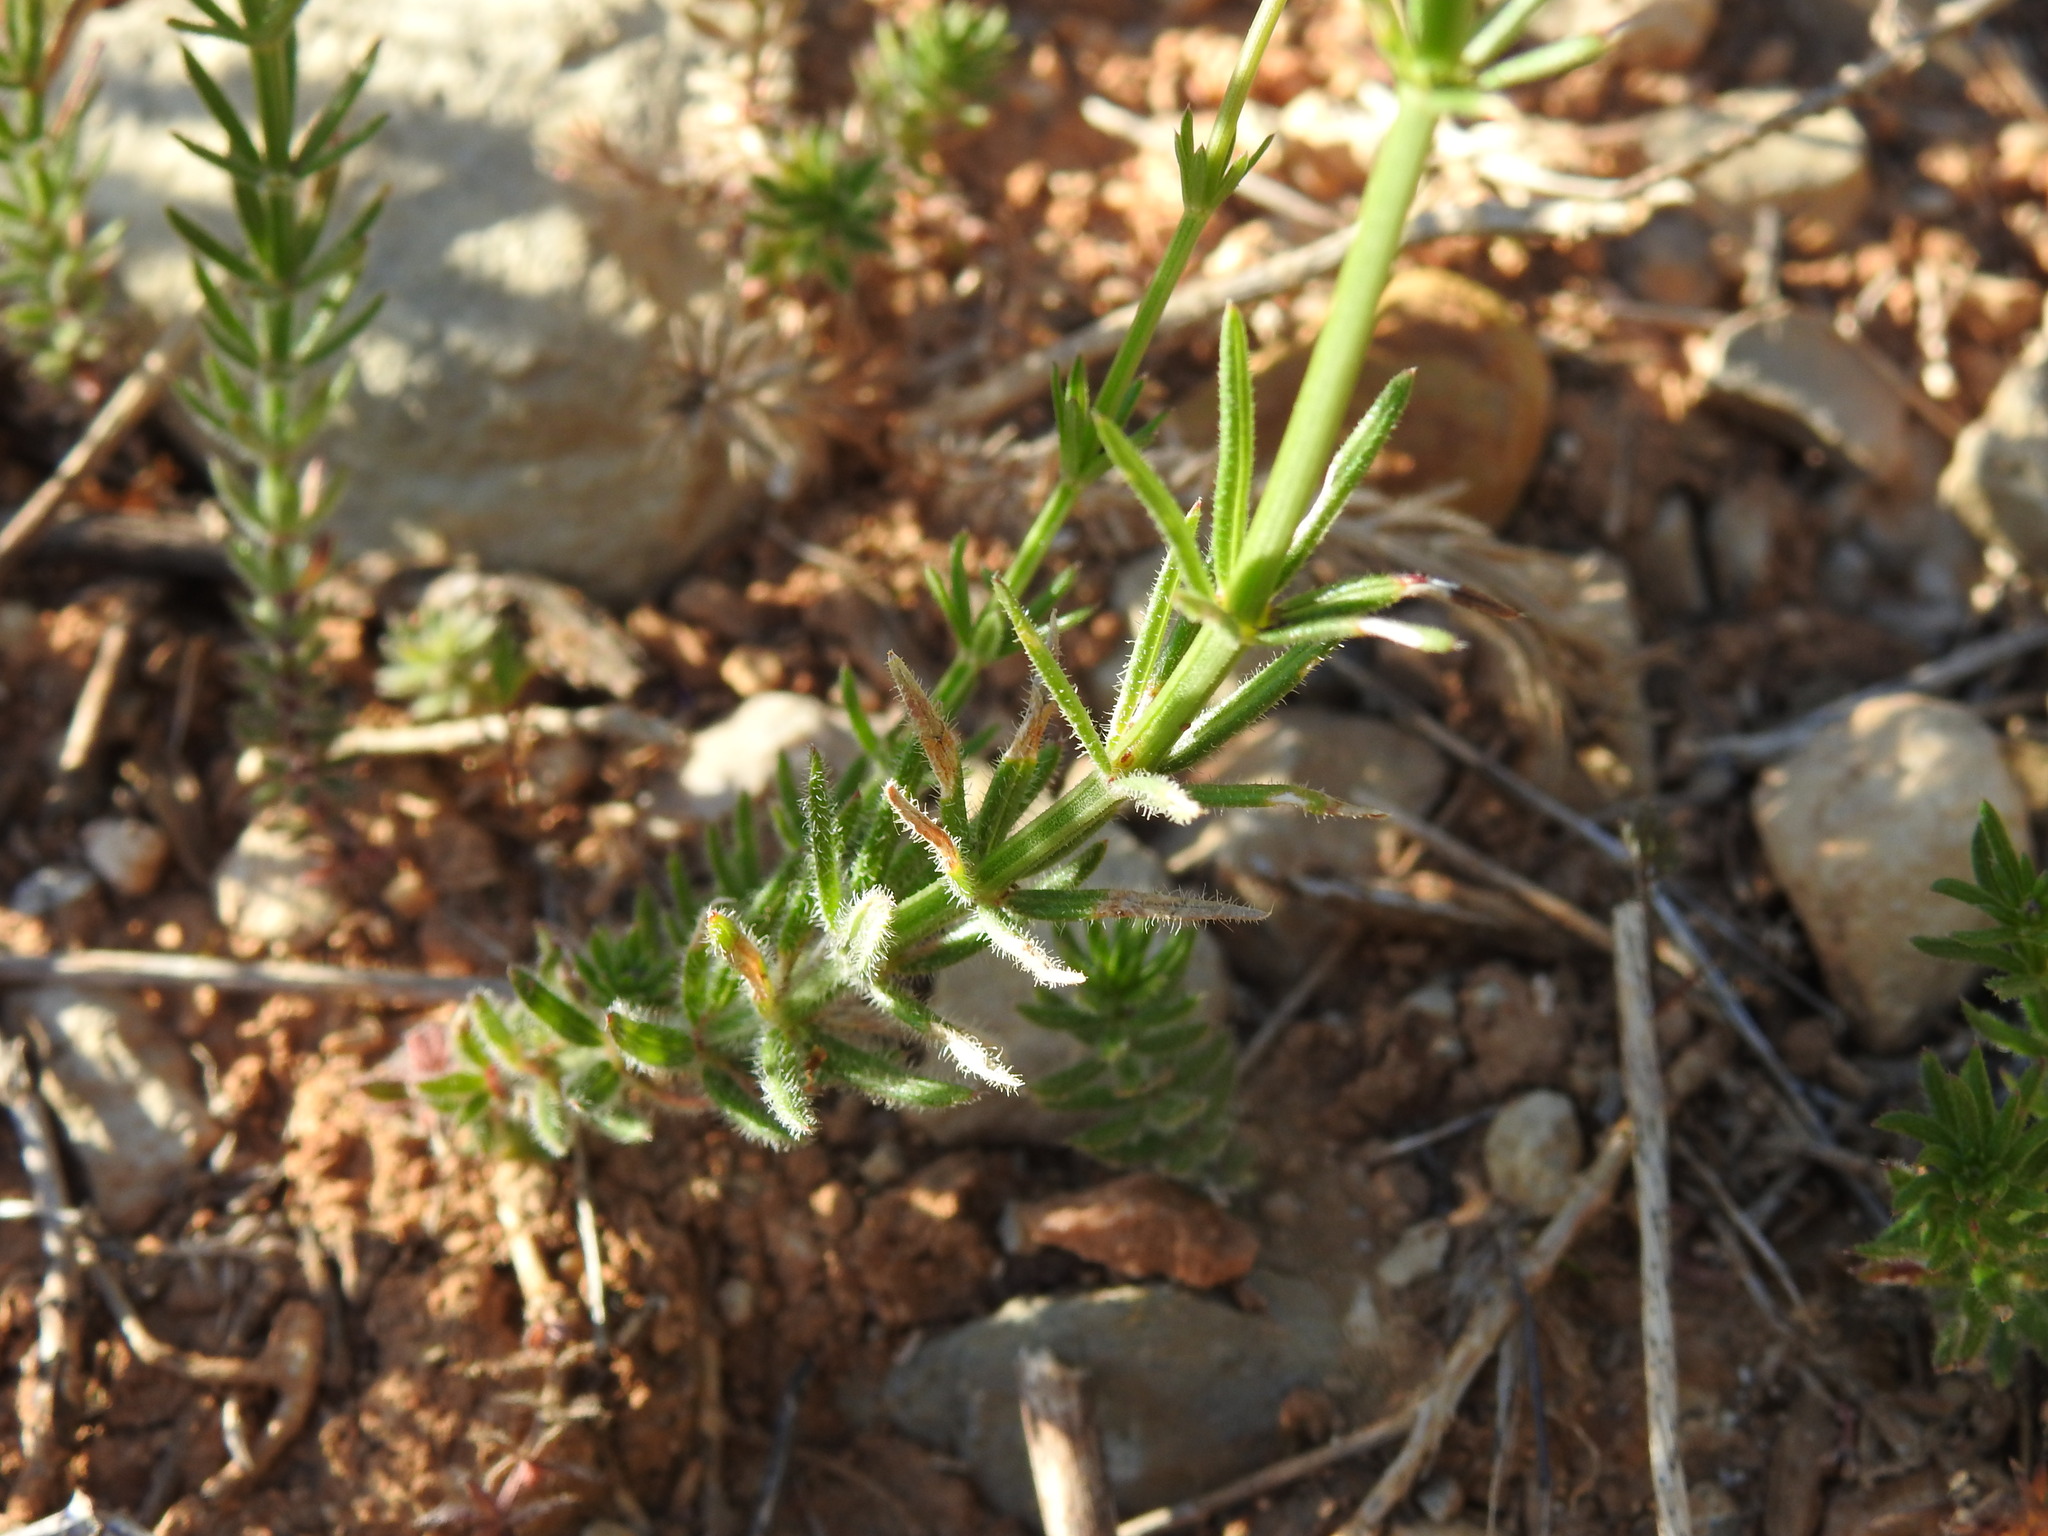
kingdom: Plantae
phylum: Tracheophyta
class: Magnoliopsida
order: Gentianales
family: Rubiaceae
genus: Hexaphylla
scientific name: Hexaphylla hirsuta
